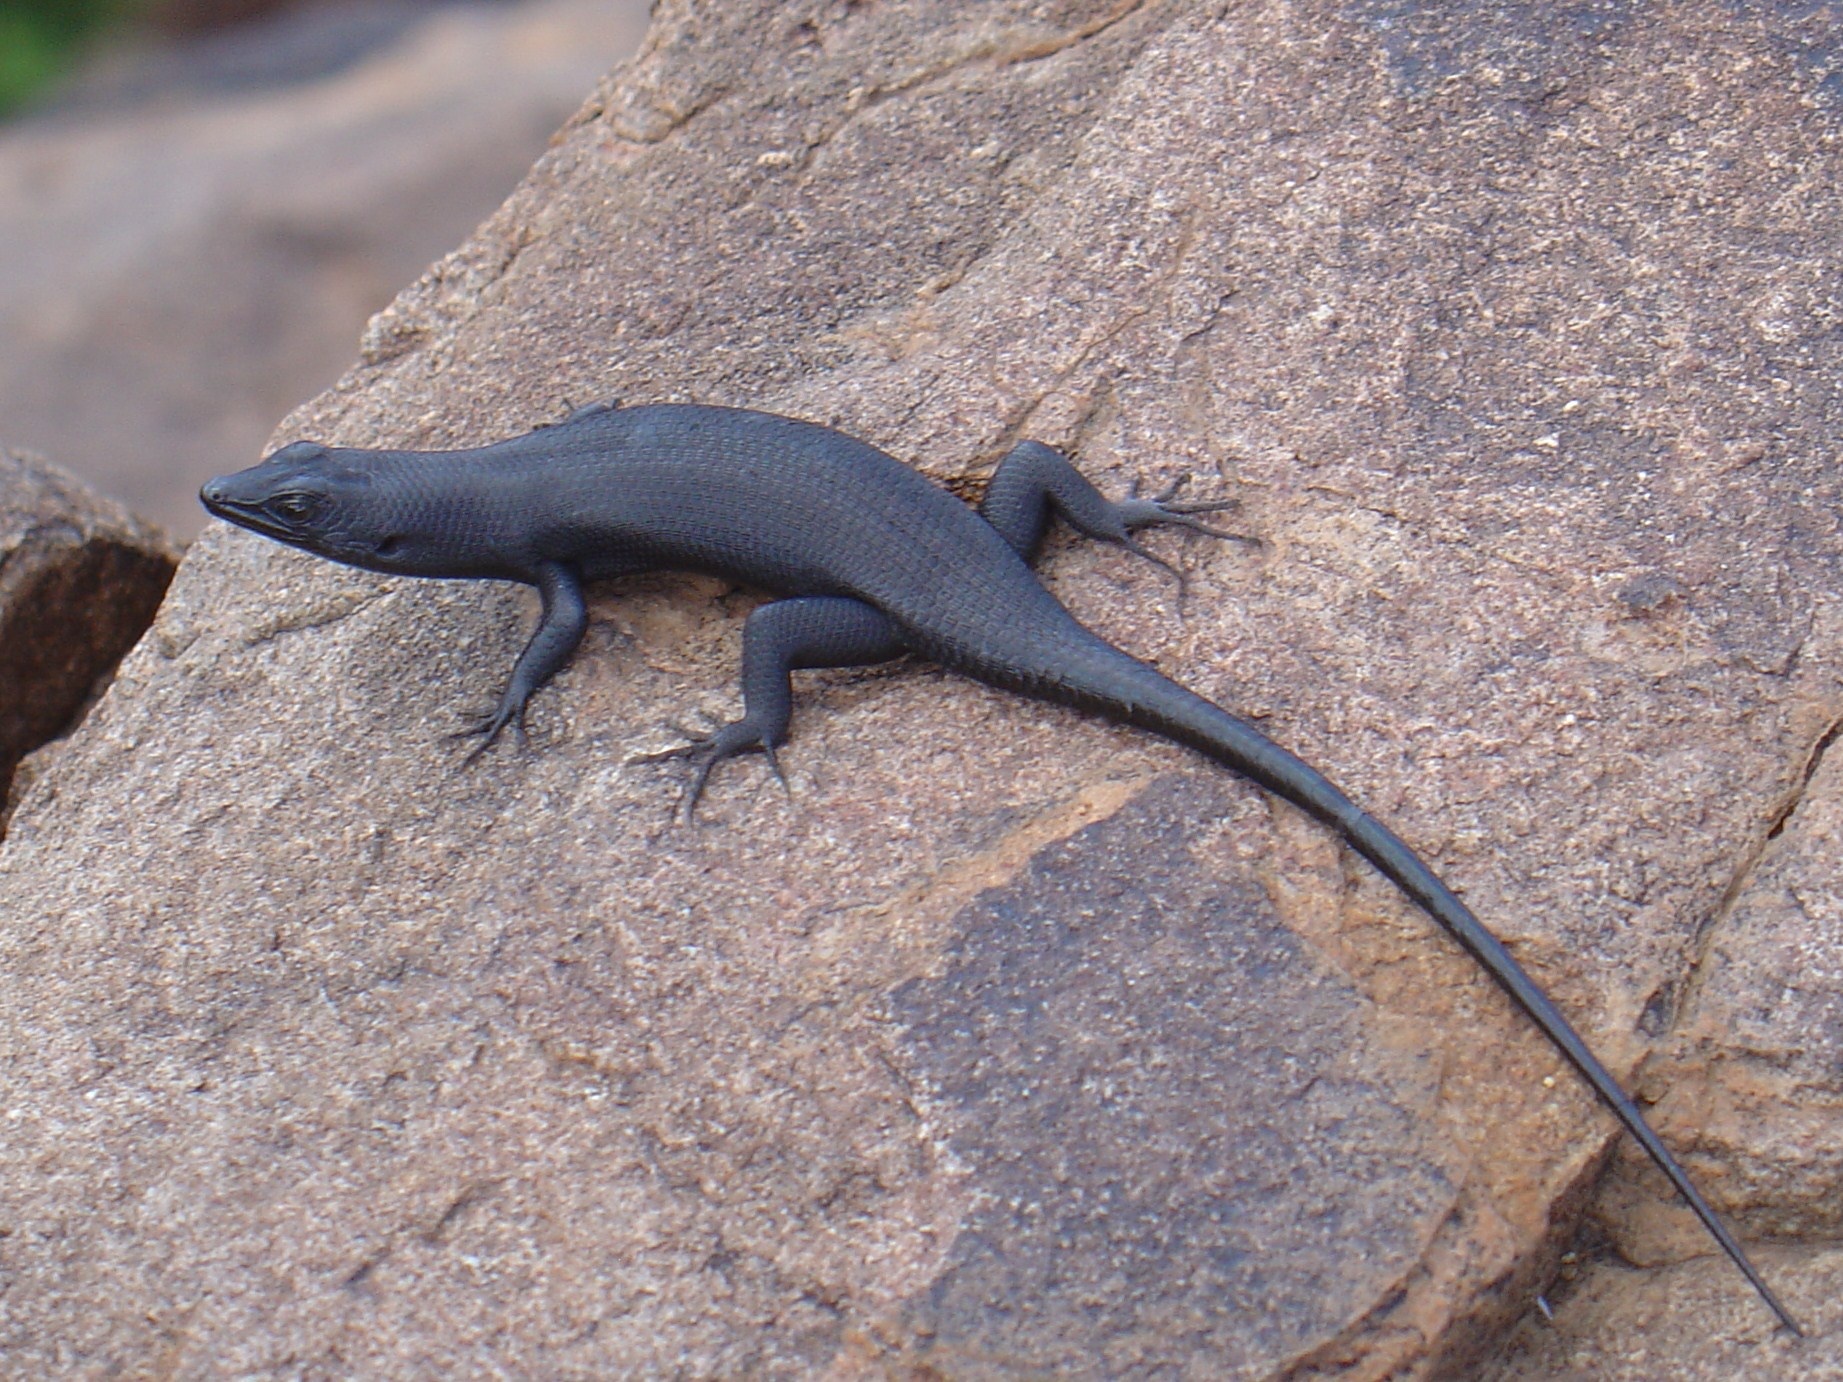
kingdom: Animalia
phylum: Chordata
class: Squamata
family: Scincidae
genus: Trachylepis
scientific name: Trachylepis sulcata
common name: Western rock skink
